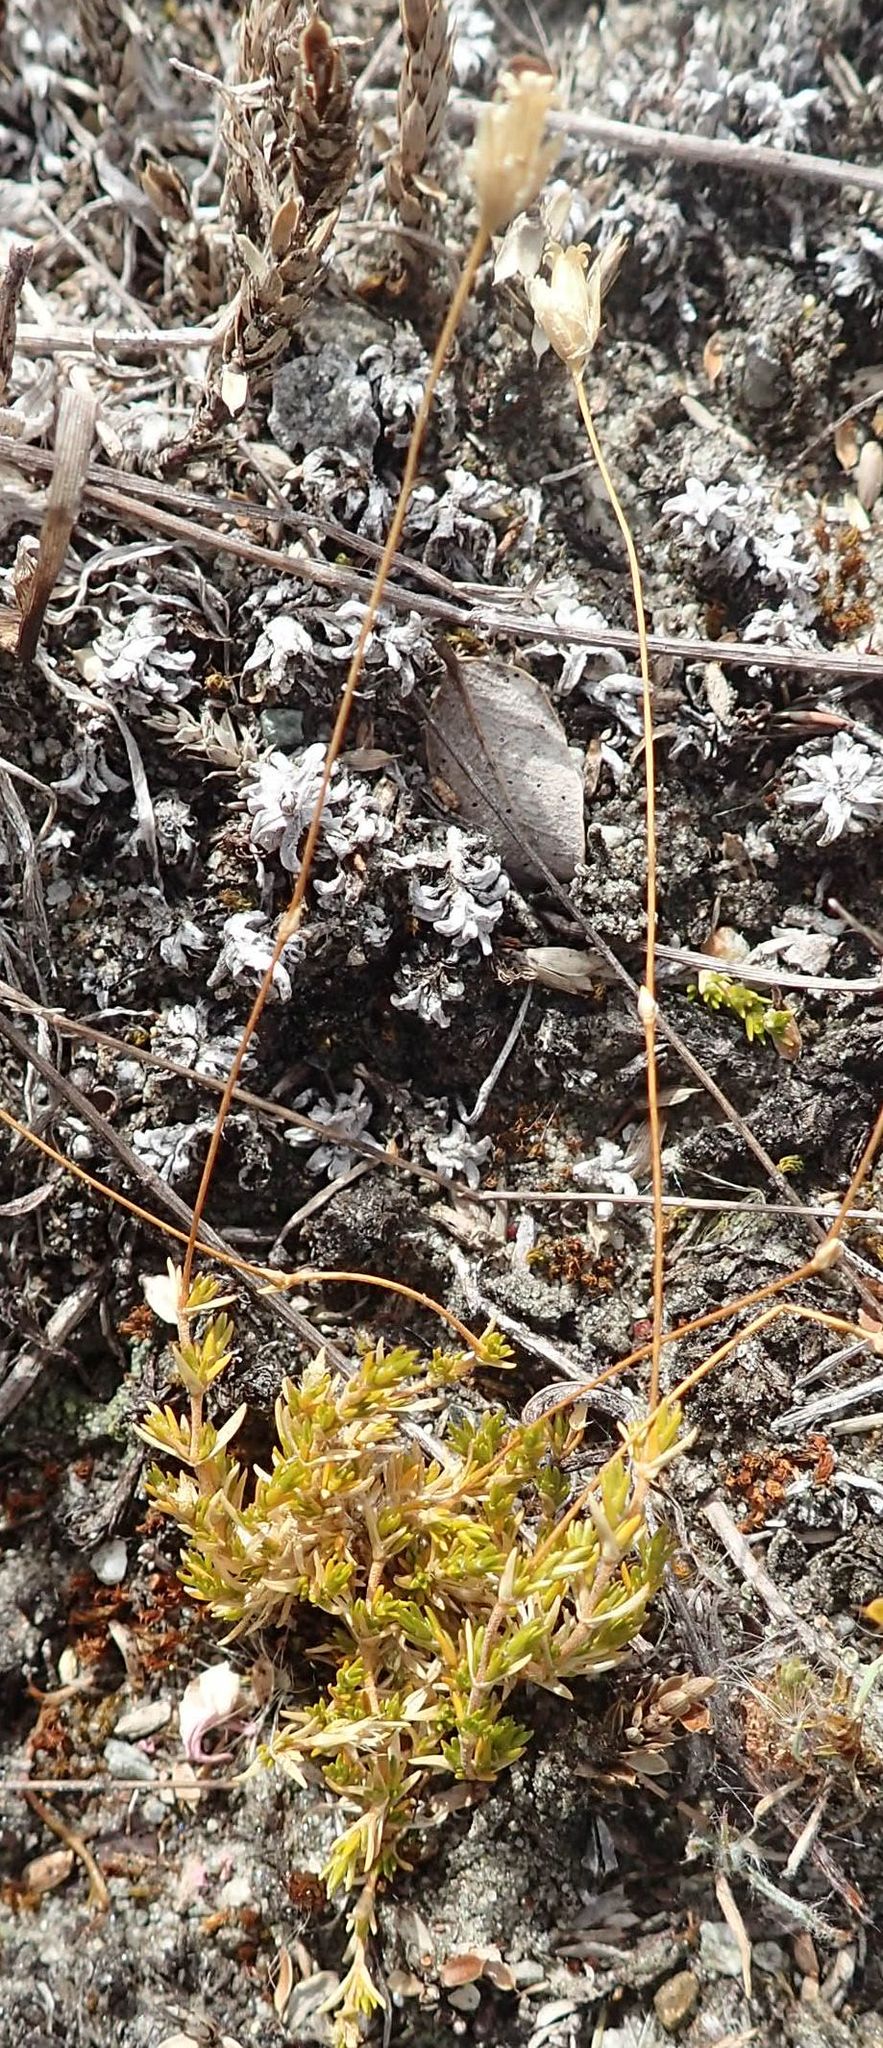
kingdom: Plantae
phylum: Tracheophyta
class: Magnoliopsida
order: Caryophyllales
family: Caryophyllaceae
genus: Stellaria
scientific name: Stellaria gracilenta
